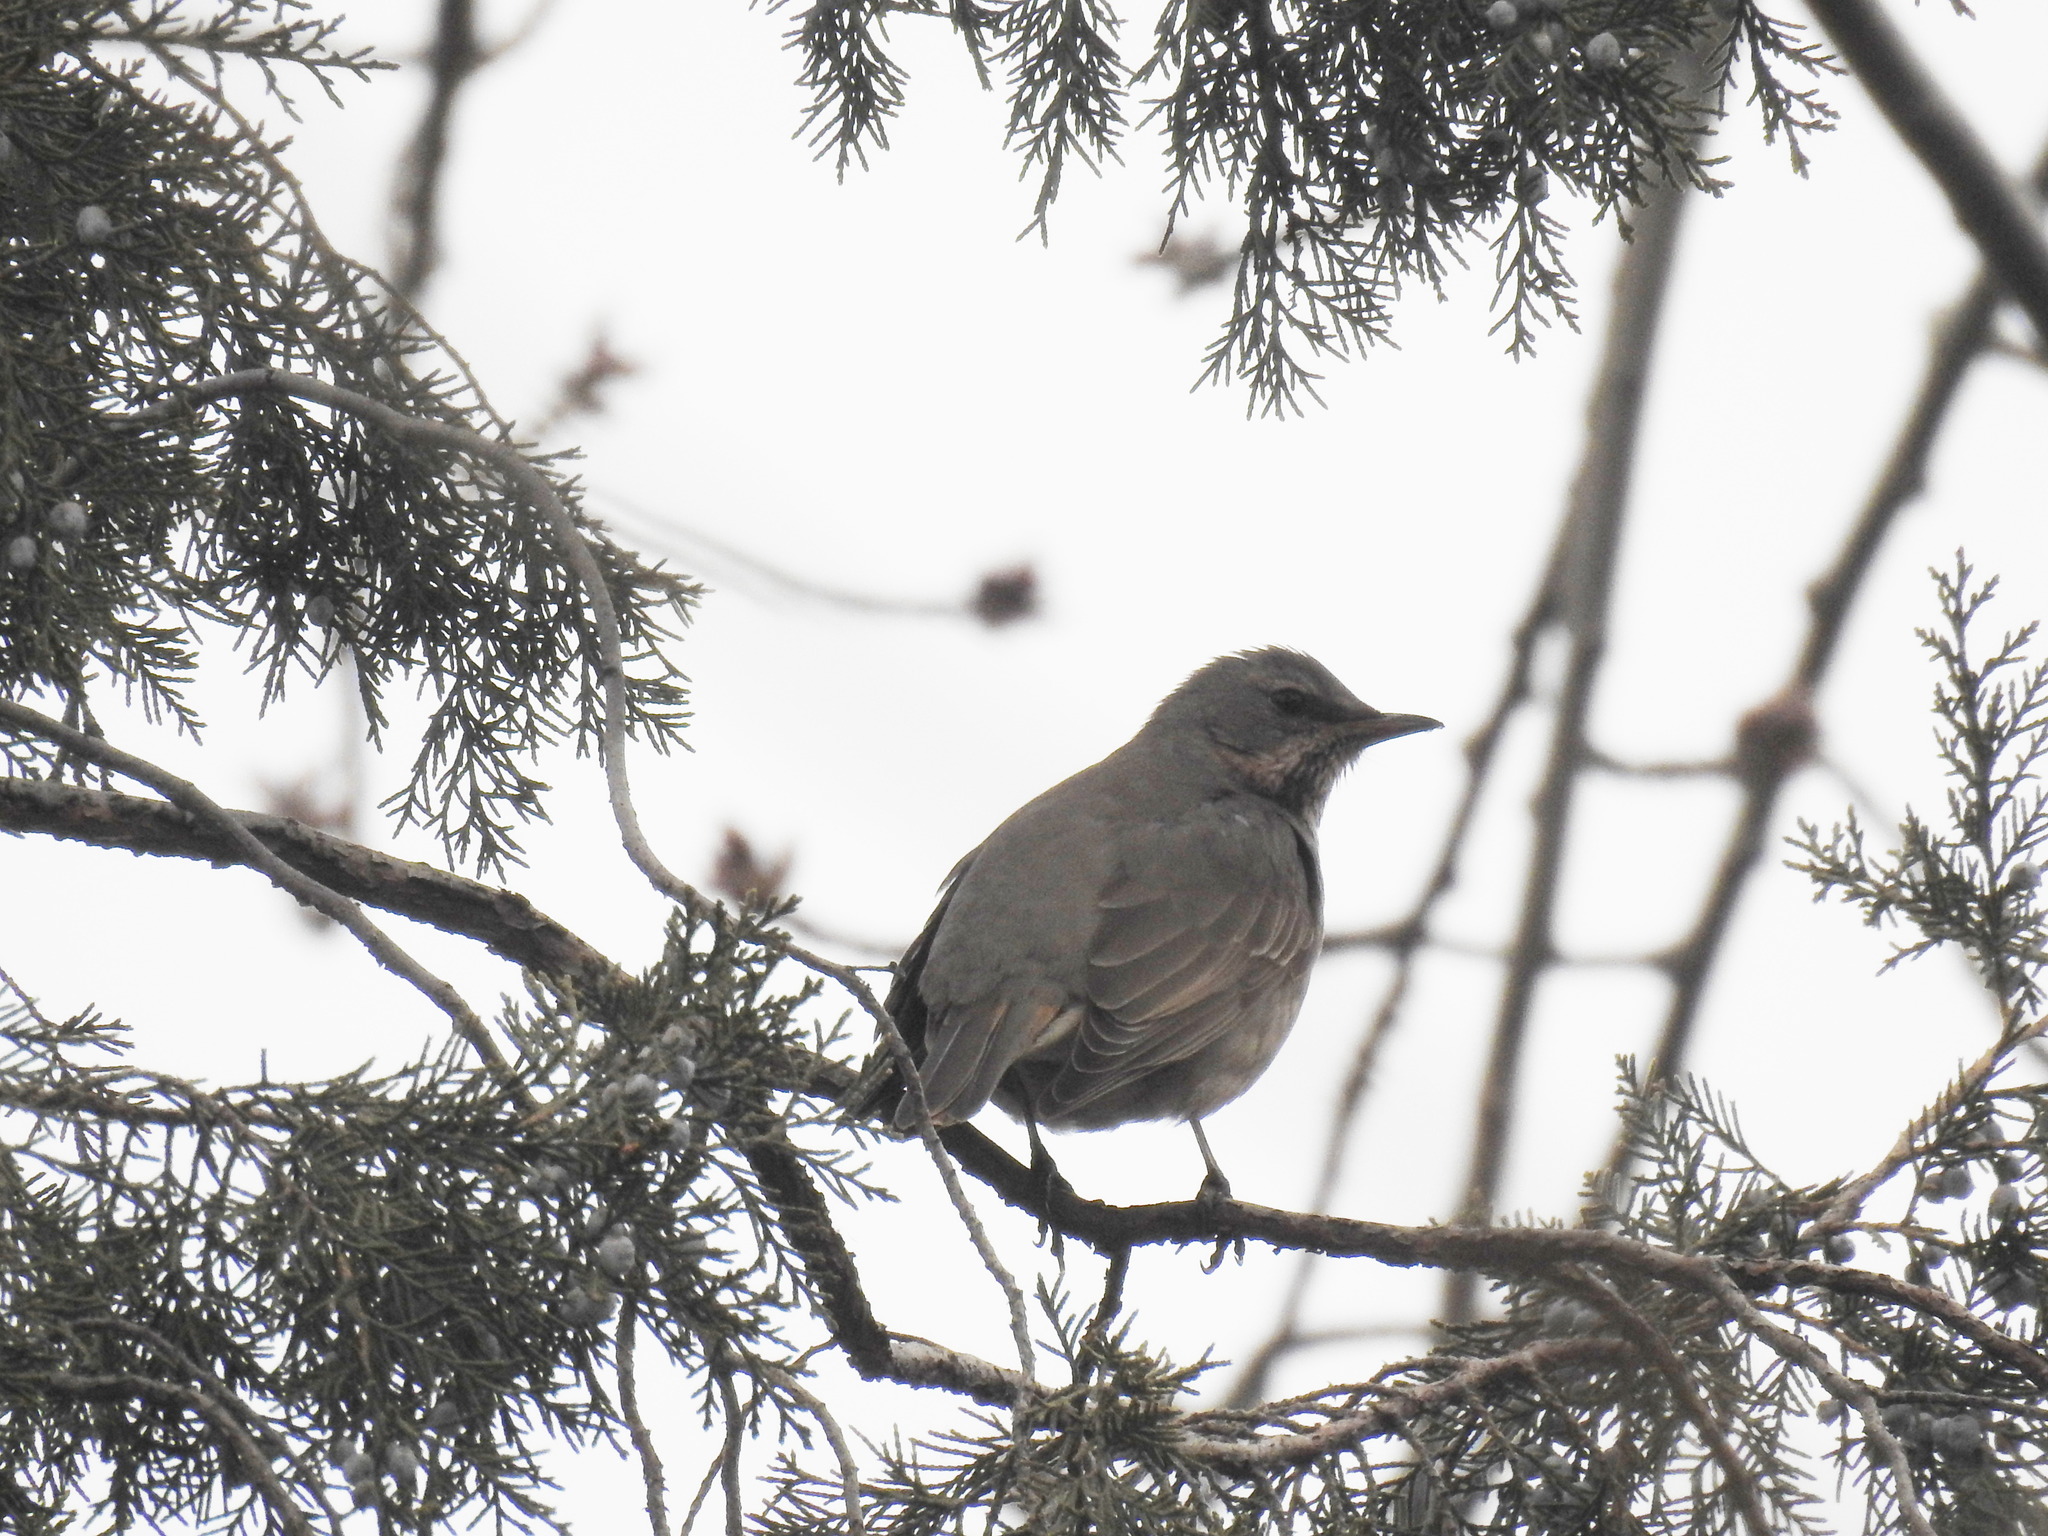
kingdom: Animalia
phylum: Chordata
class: Aves
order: Passeriformes
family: Turdidae
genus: Turdus
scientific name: Turdus naumanni
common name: Naumann's thrush
